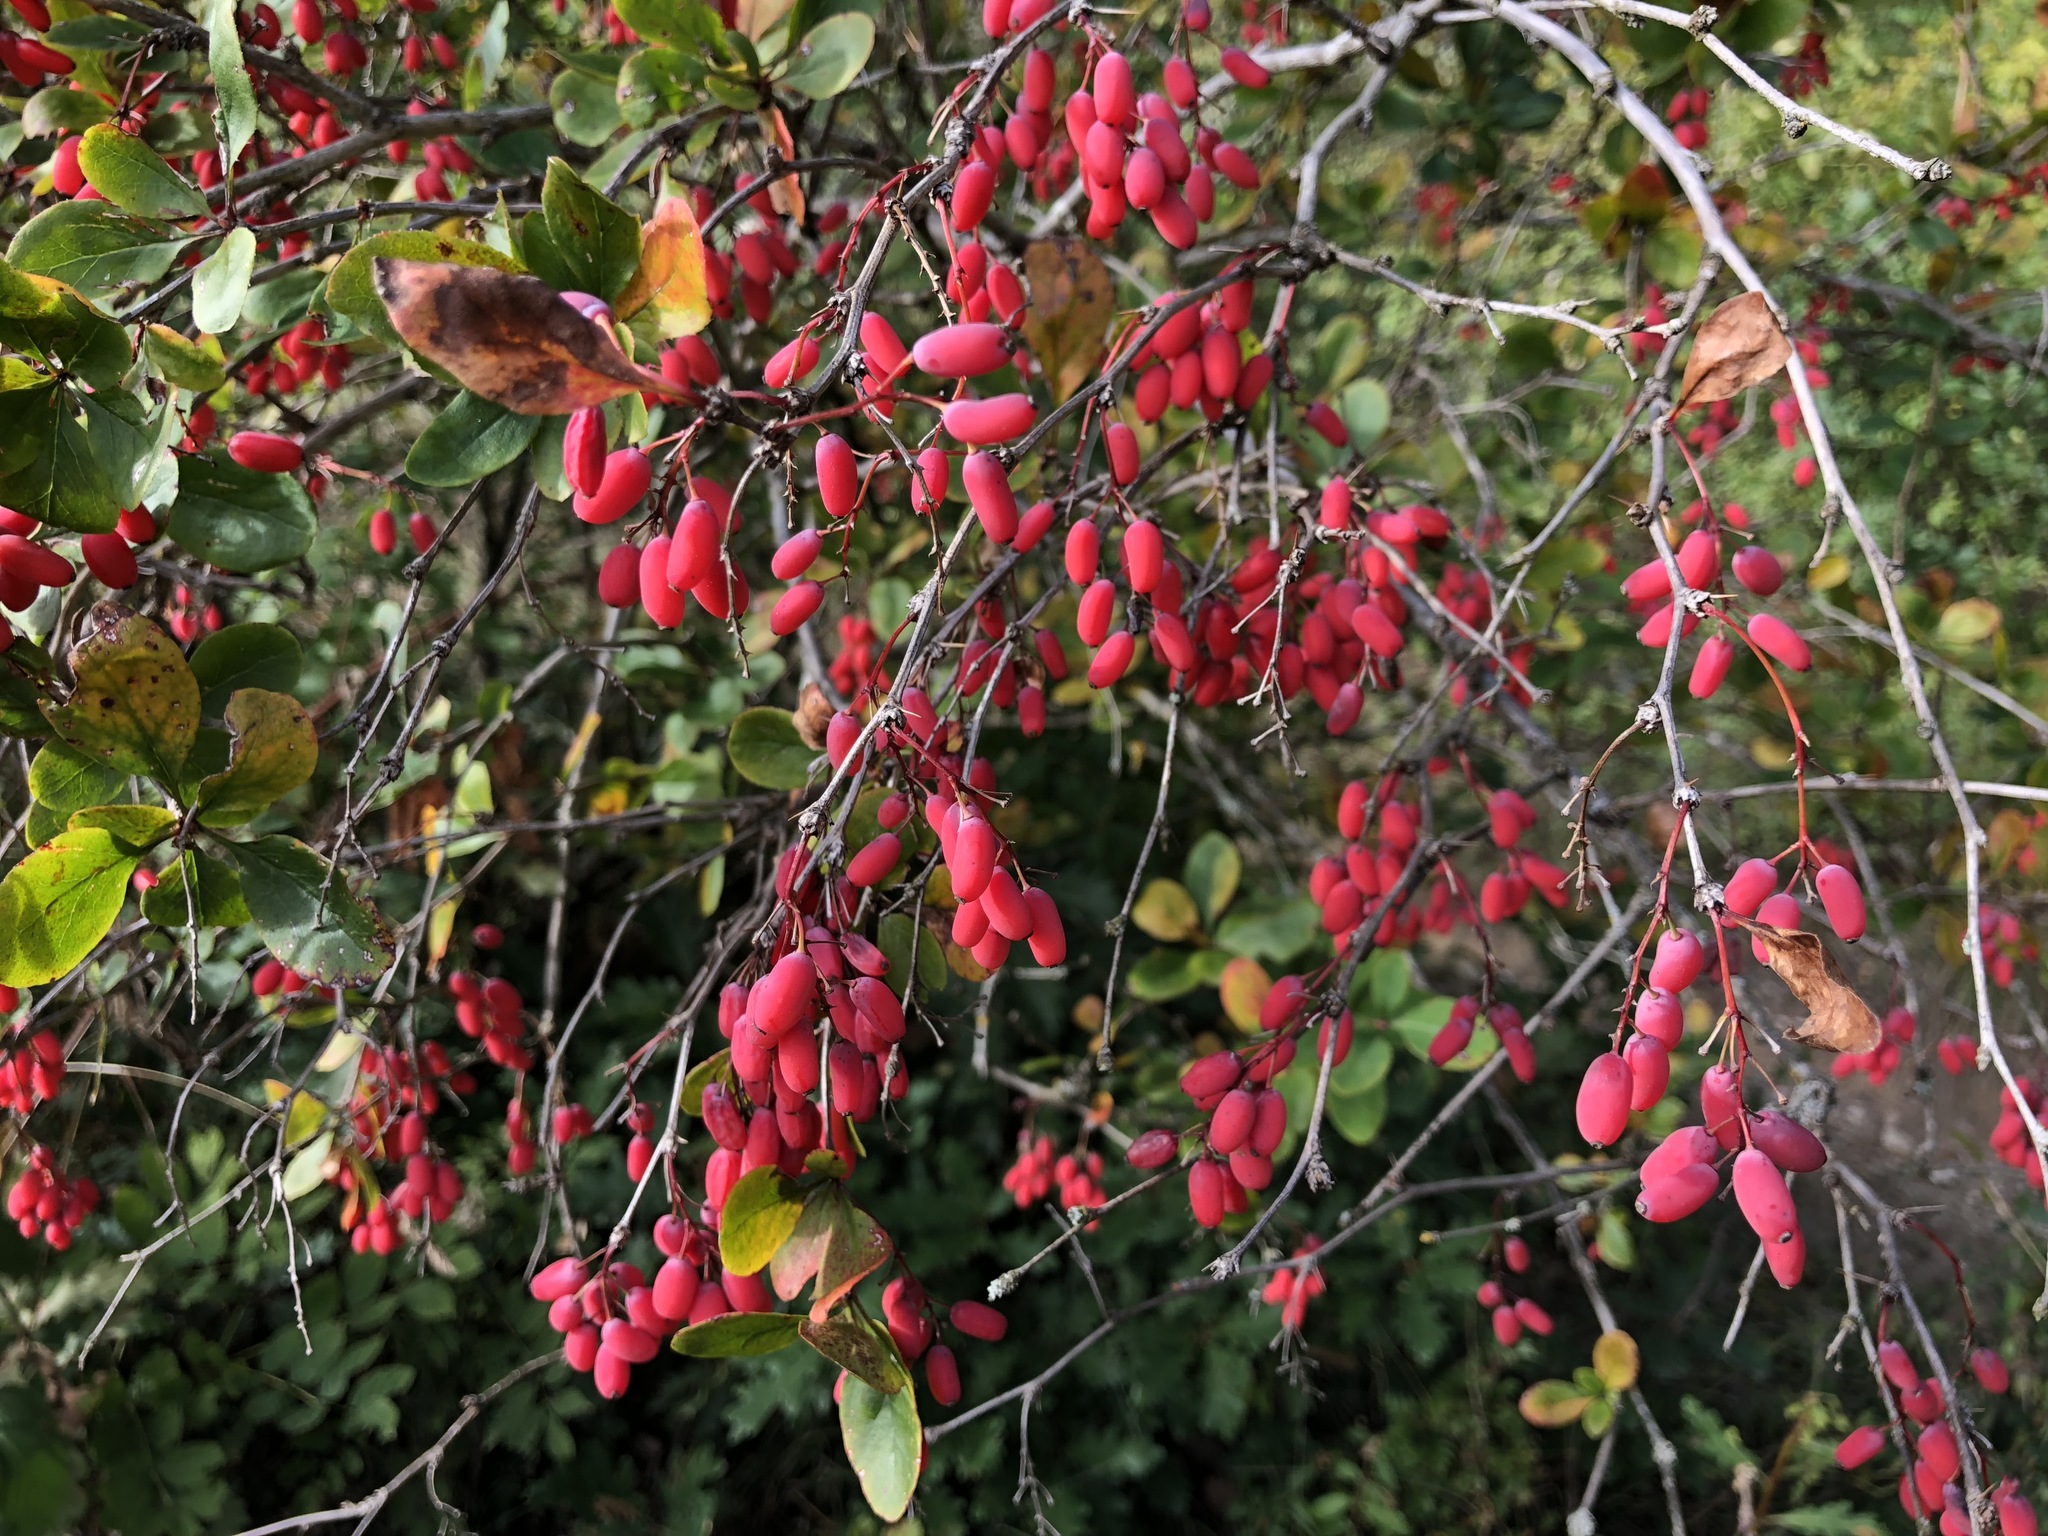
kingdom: Plantae
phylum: Tracheophyta
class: Magnoliopsida
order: Ranunculales
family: Berberidaceae
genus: Berberis
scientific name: Berberis vulgaris
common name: Barberry
